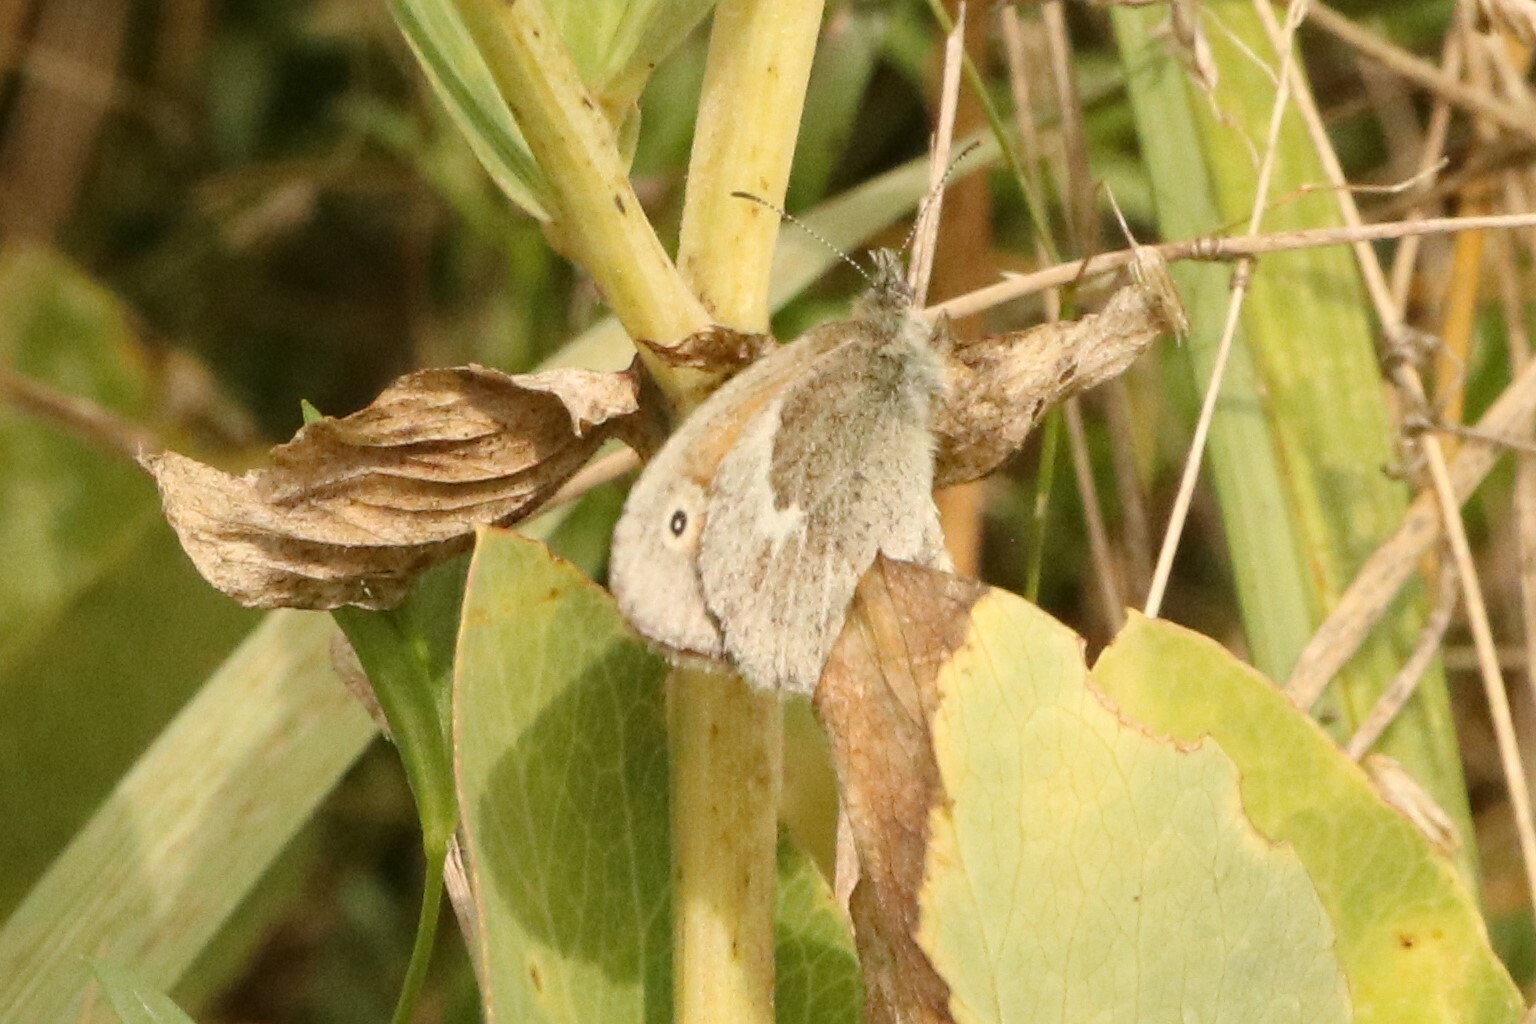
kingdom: Animalia
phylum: Arthropoda
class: Insecta
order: Lepidoptera
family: Nymphalidae
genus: Coenonympha
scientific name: Coenonympha california
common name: Common ringlet
